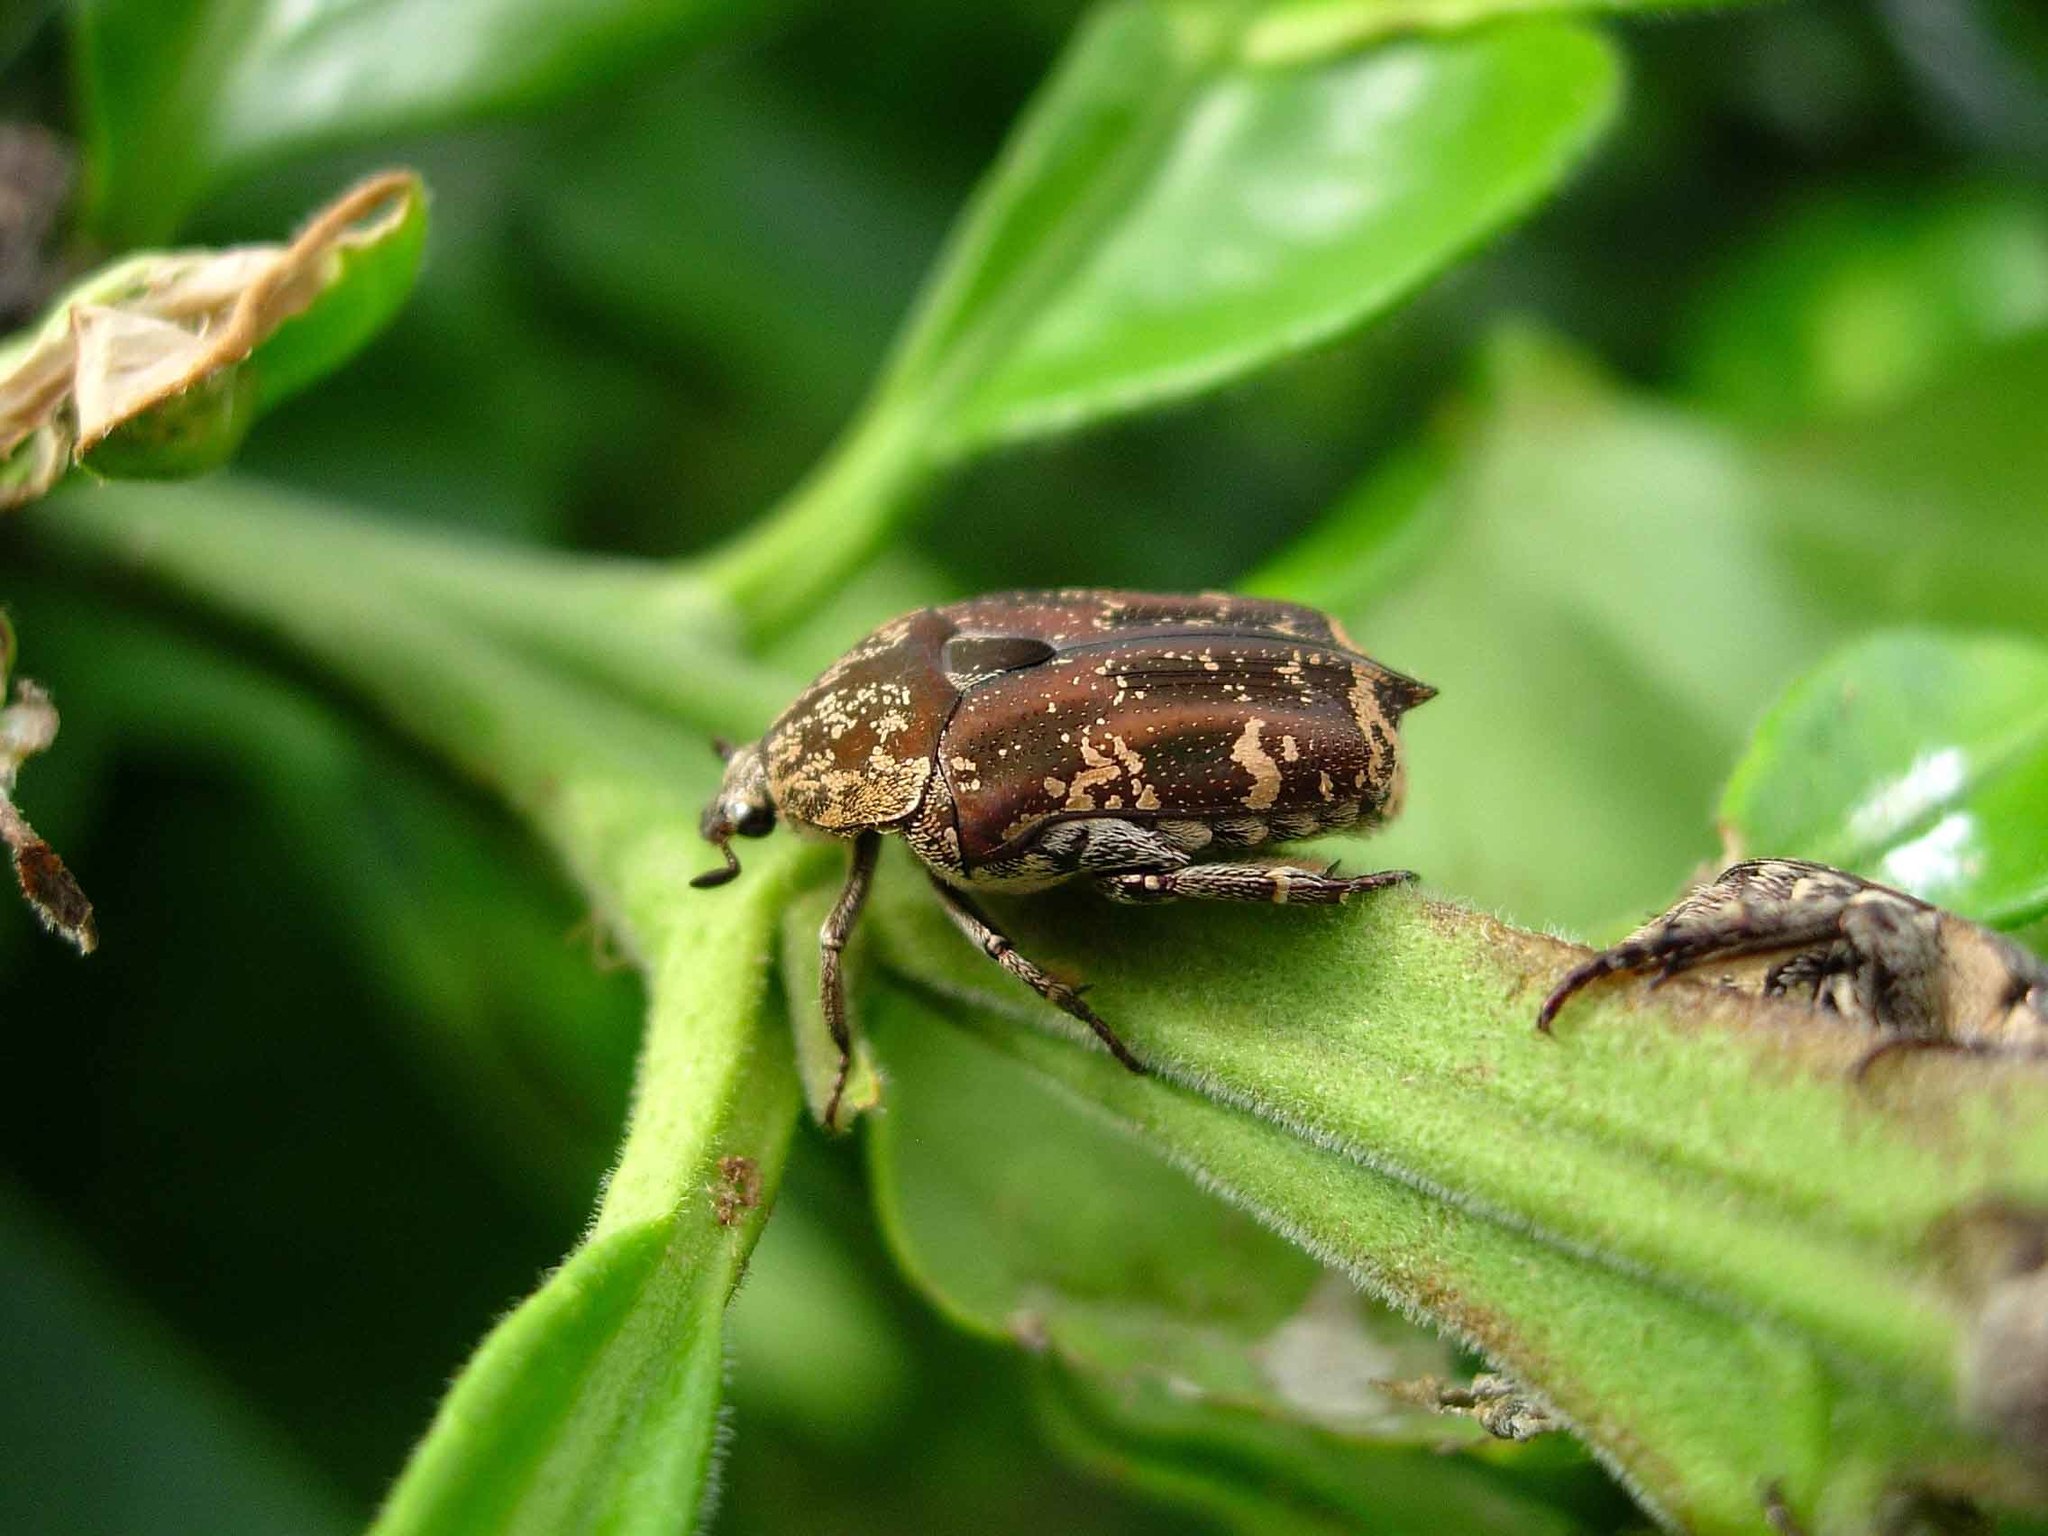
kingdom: Animalia
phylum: Arthropoda
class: Insecta
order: Coleoptera
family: Scarabaeidae
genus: Protaetia
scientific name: Protaetia fusca
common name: Mango flower beetle
